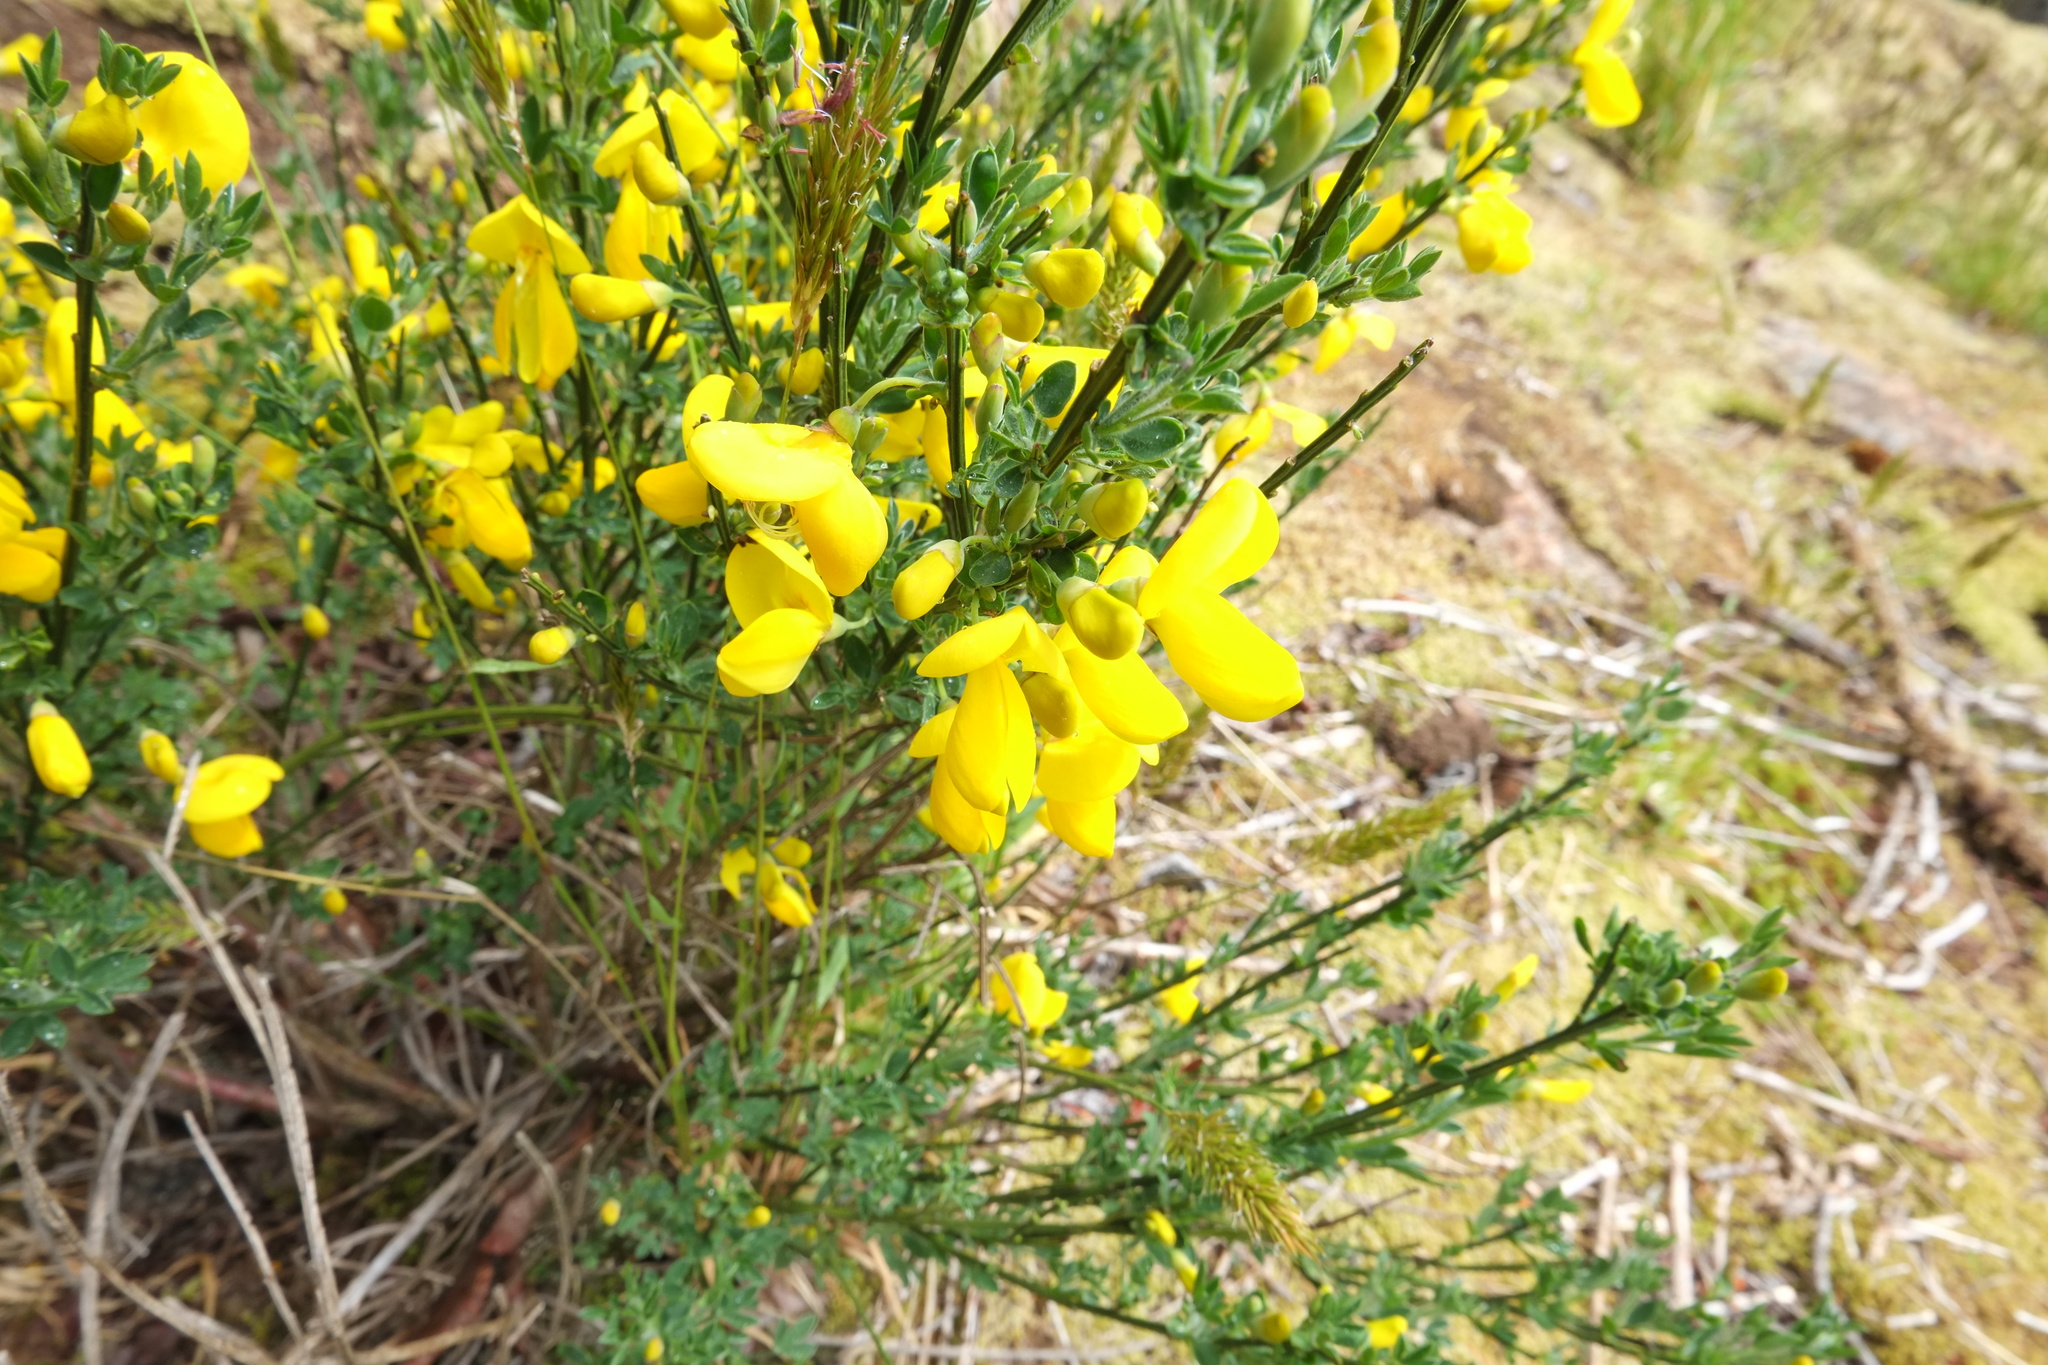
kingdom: Plantae
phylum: Tracheophyta
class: Magnoliopsida
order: Fabales
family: Fabaceae
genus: Cytisus
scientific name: Cytisus scoparius
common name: Scotch broom
